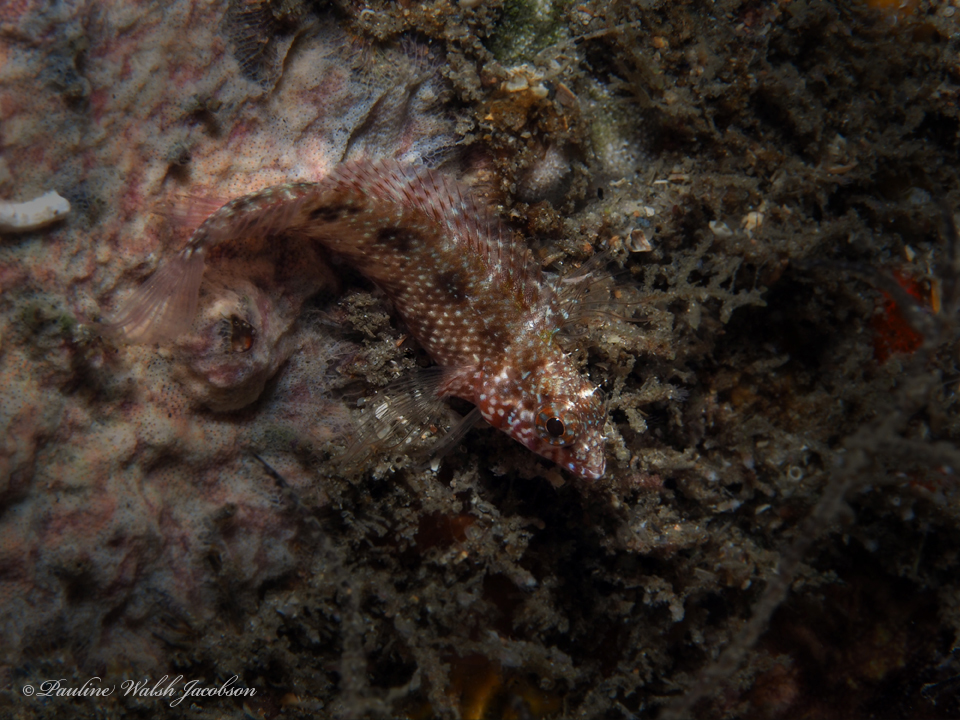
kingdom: Animalia
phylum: Chordata
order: Perciformes
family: Labrisomidae
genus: Malacoctenus
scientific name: Malacoctenus macropus
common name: Rosy blenny
